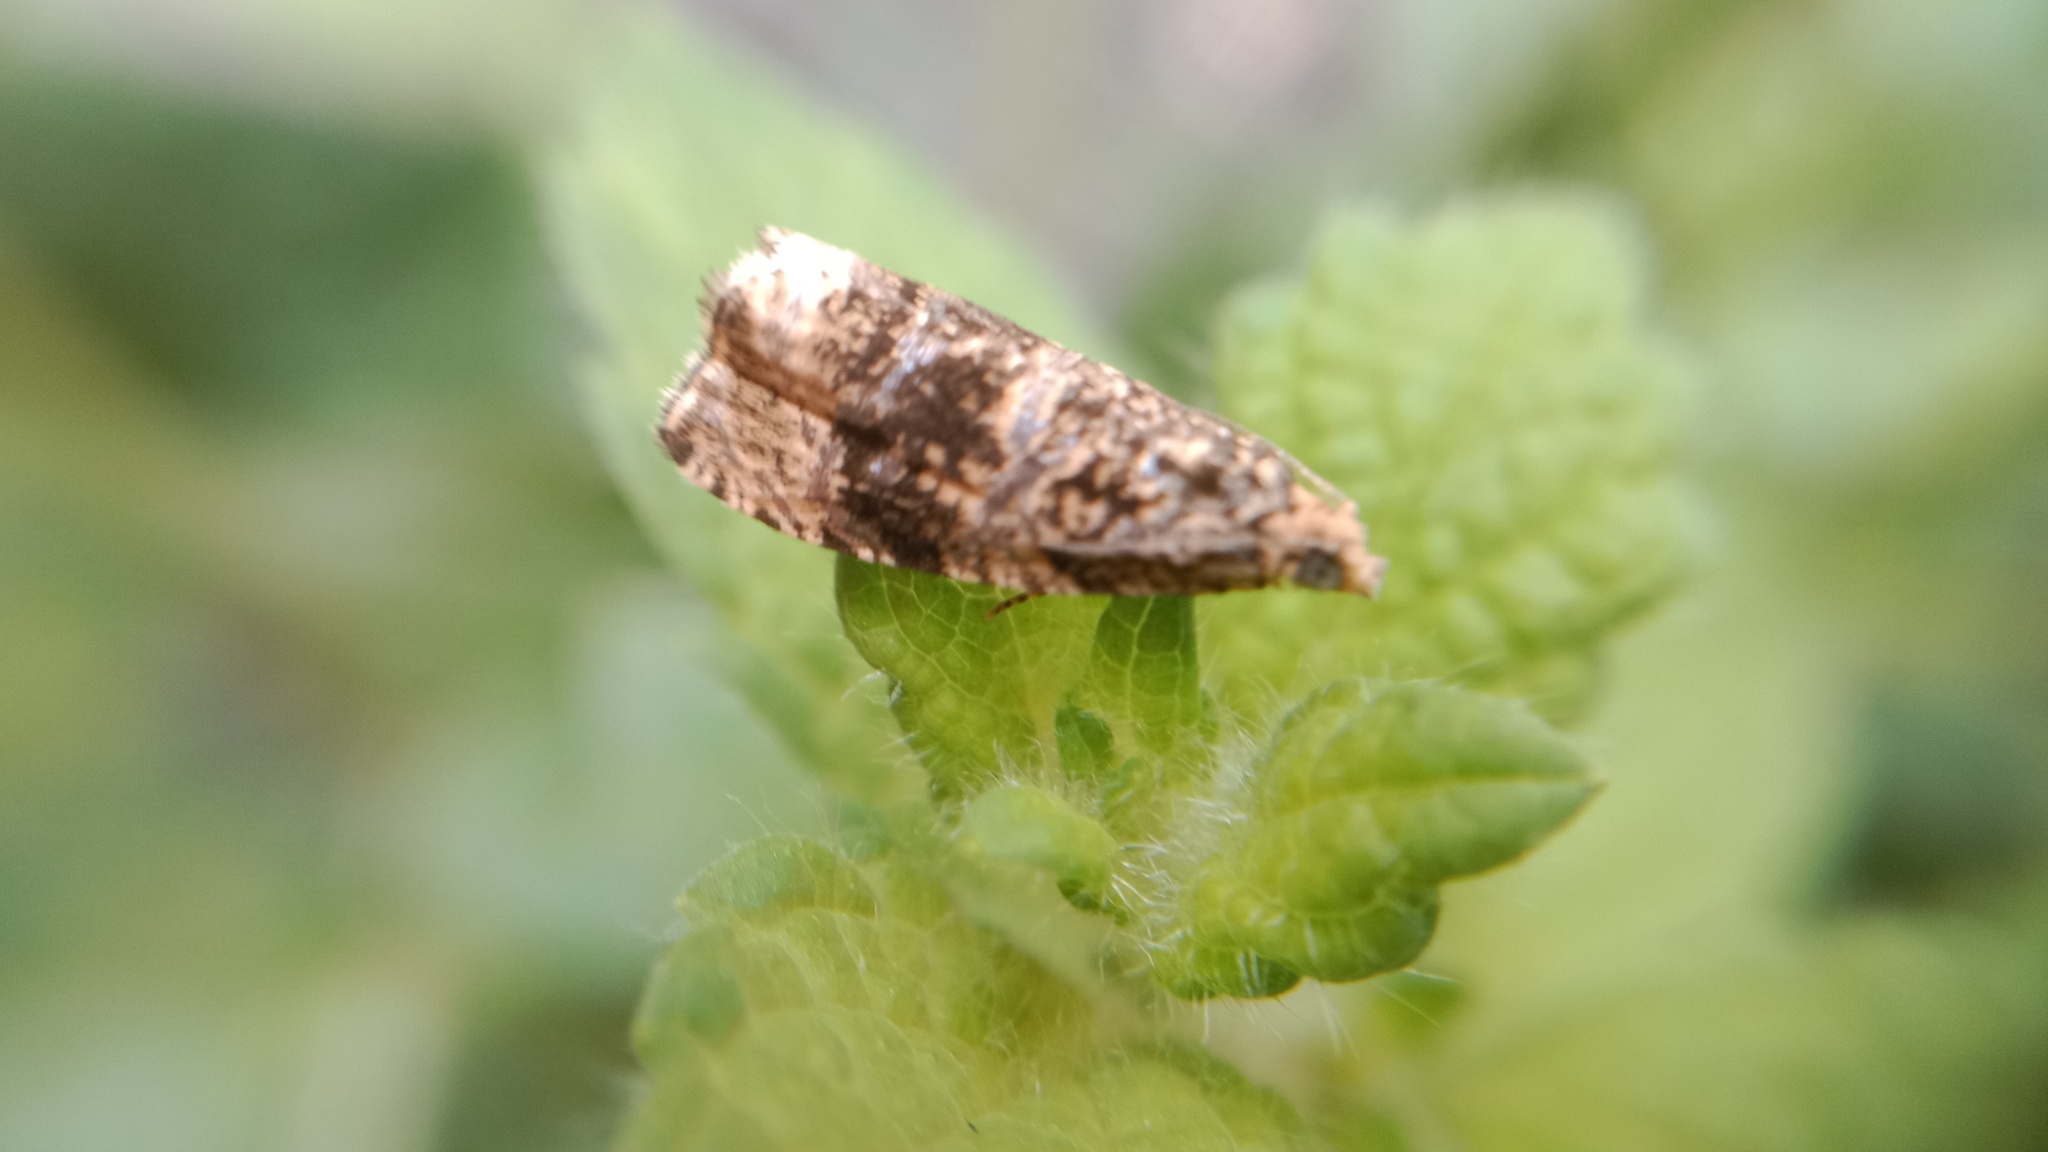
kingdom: Animalia
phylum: Arthropoda
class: Insecta
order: Lepidoptera
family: Tortricidae
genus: Syricoris
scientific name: Syricoris lacunana
